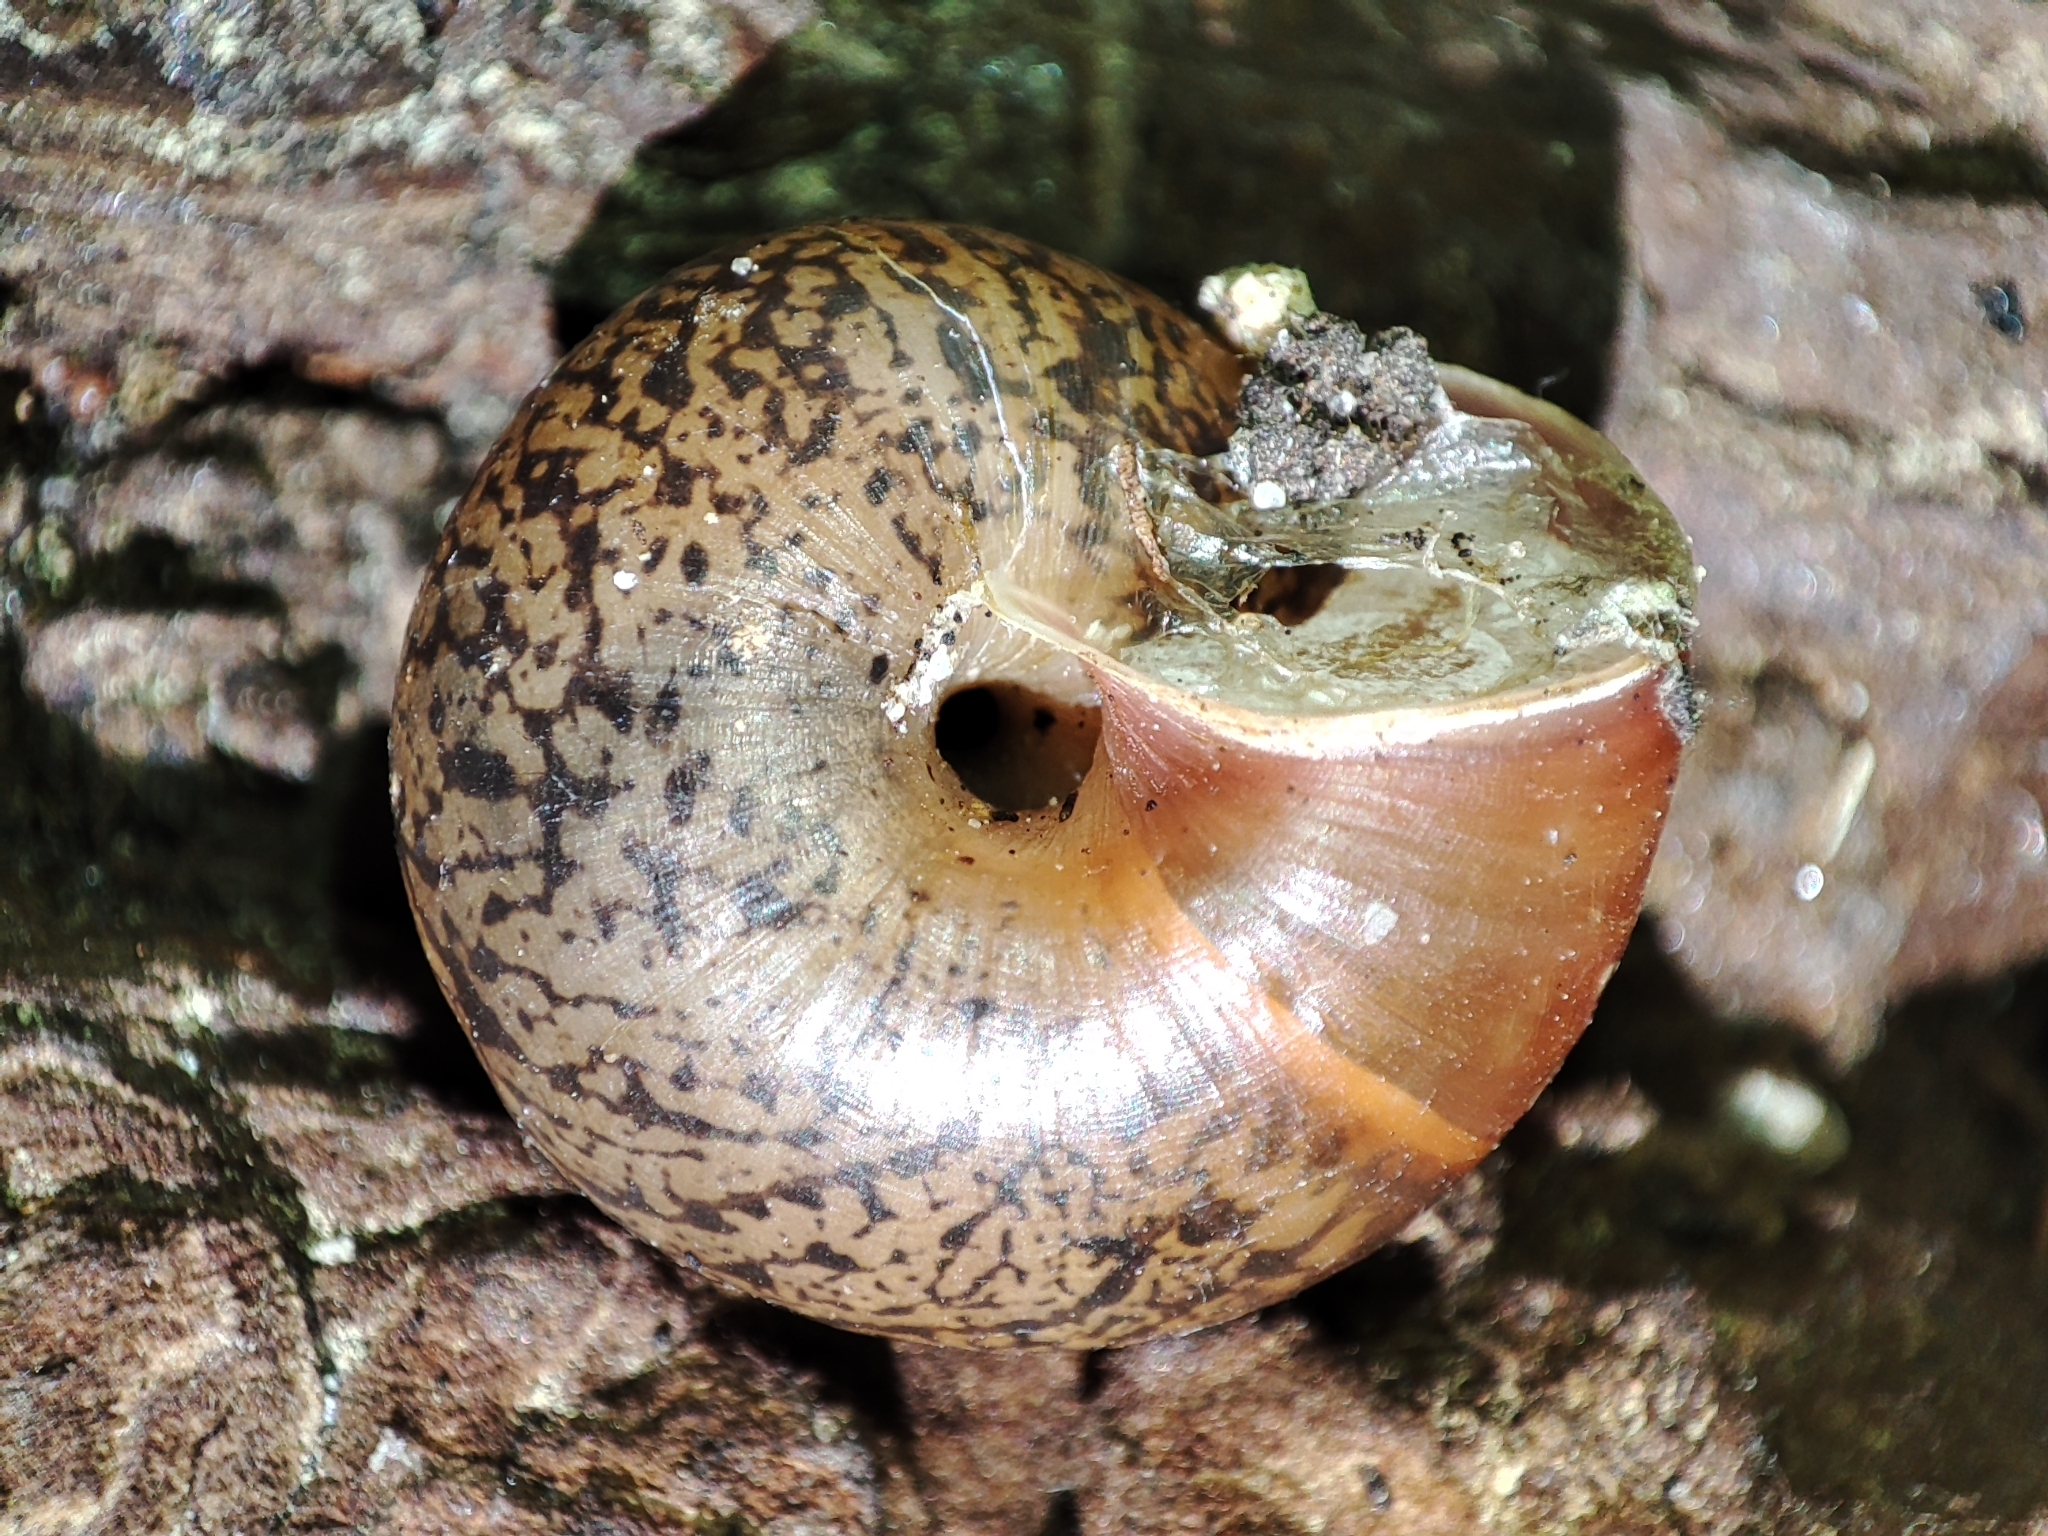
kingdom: Animalia
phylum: Mollusca
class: Gastropoda
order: Stylommatophora
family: Camaenidae
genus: Fruticicola
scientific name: Fruticicola fruticum
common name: Bush snail
